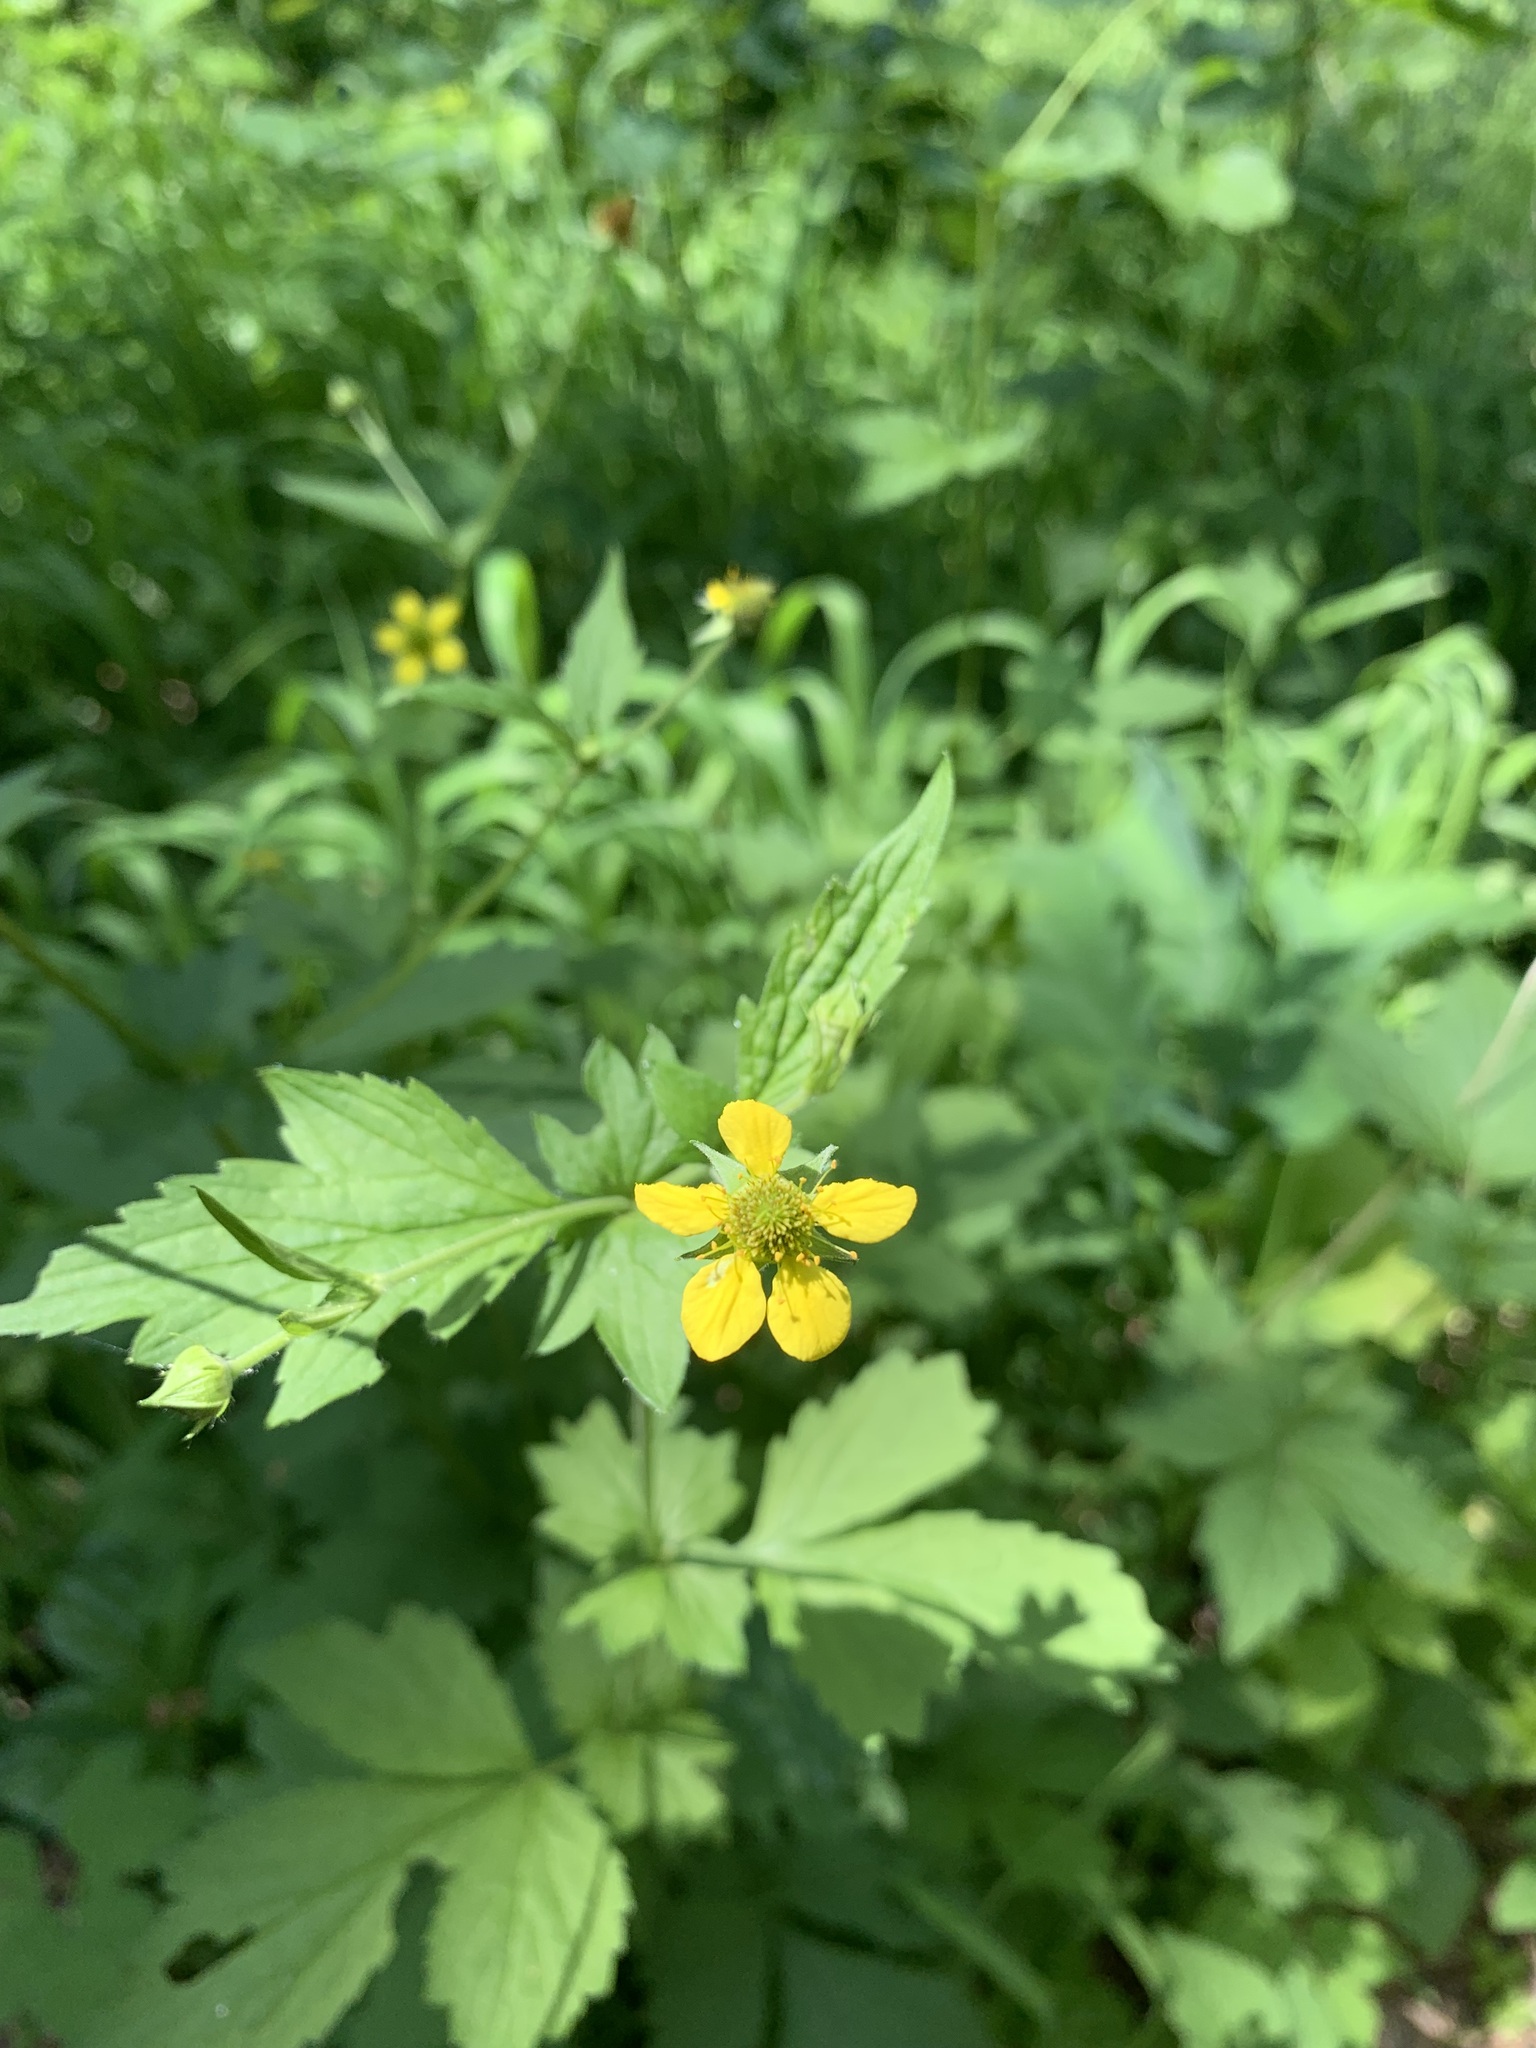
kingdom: Plantae
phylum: Tracheophyta
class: Magnoliopsida
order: Rosales
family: Rosaceae
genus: Geum
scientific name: Geum urbanum
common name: Wood avens
